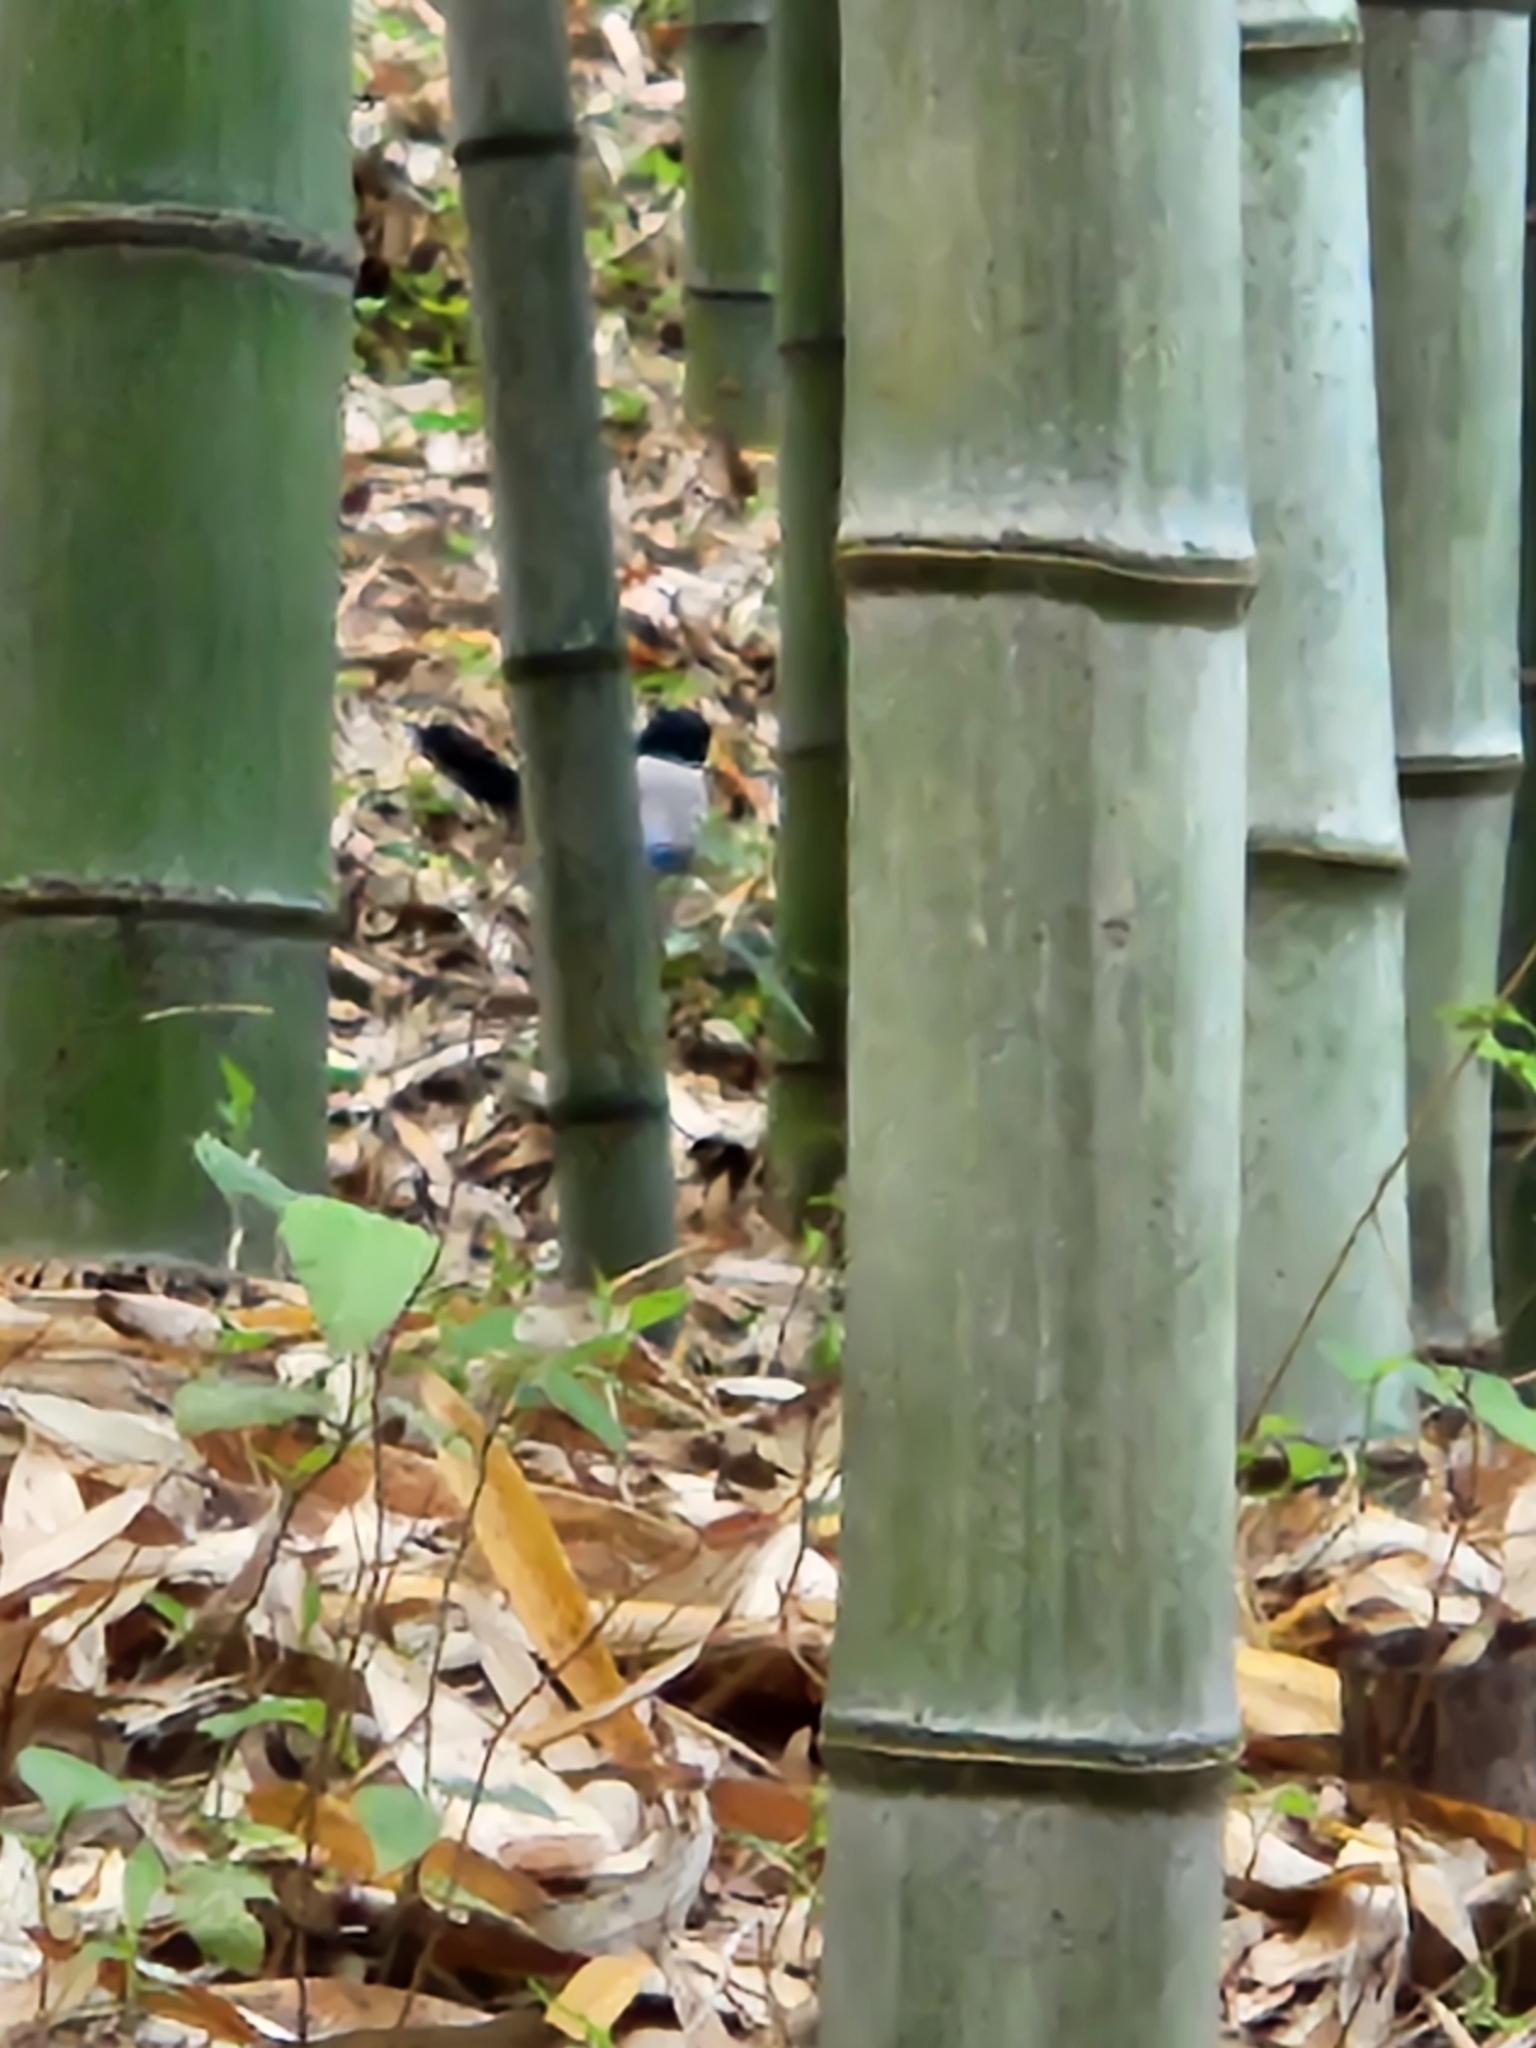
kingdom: Animalia
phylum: Chordata
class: Aves
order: Passeriformes
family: Corvidae
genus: Cyanopica
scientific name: Cyanopica cyanus
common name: Azure-winged magpie
